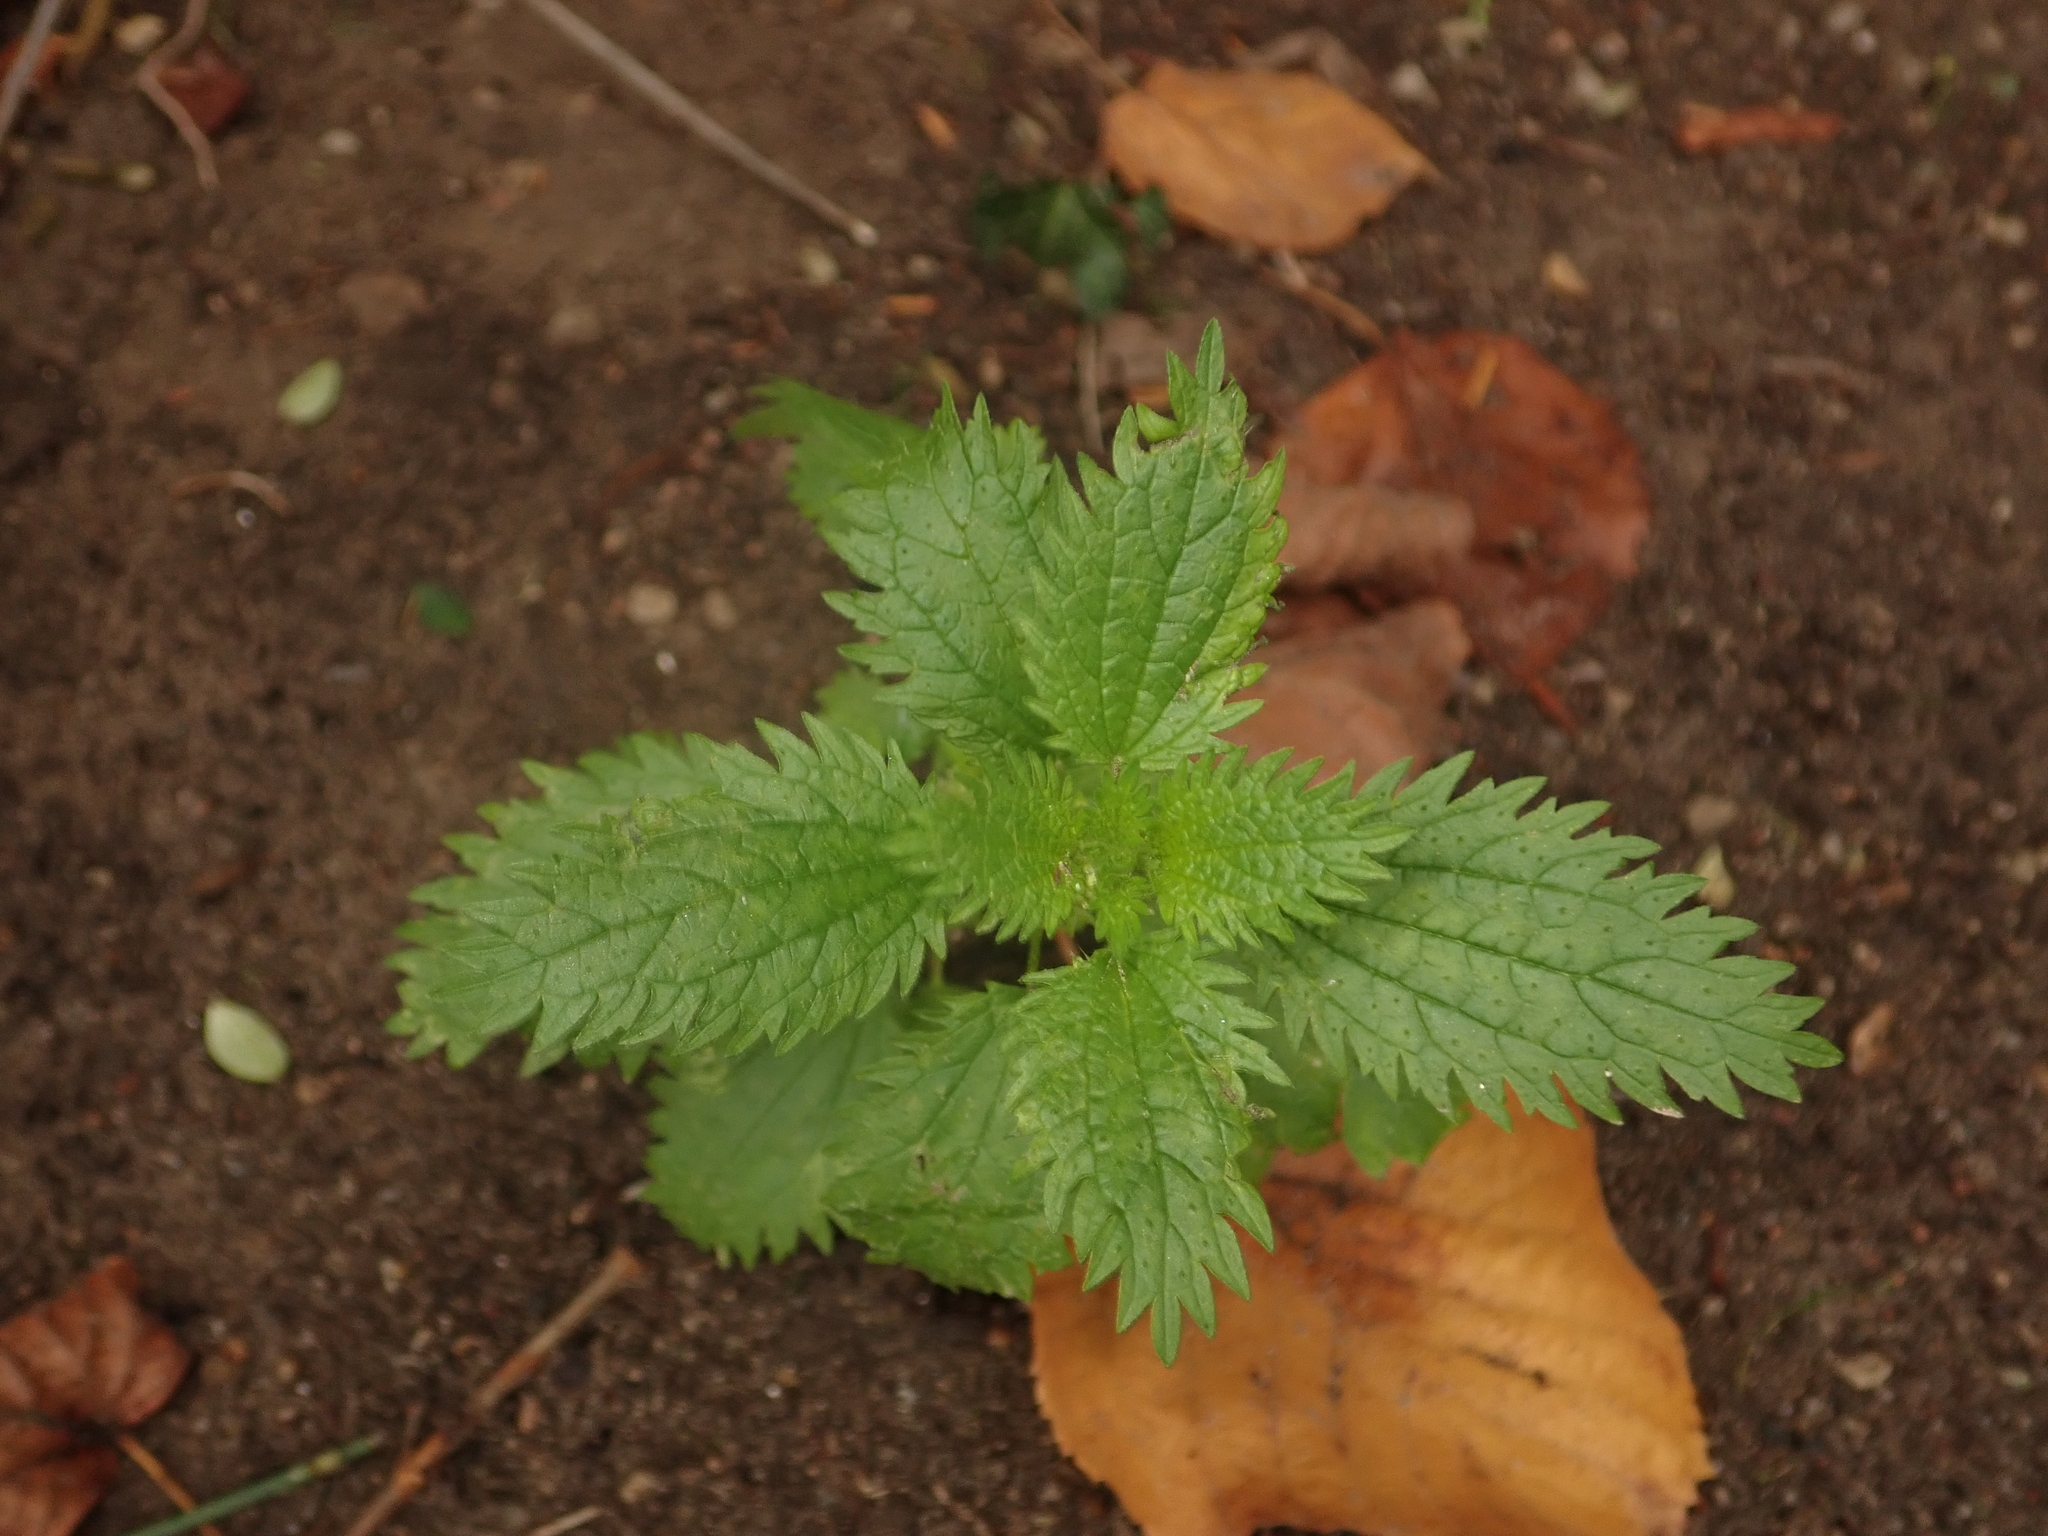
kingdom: Plantae
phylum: Tracheophyta
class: Magnoliopsida
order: Rosales
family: Urticaceae
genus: Urtica
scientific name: Urtica urens
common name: Dwarf nettle
